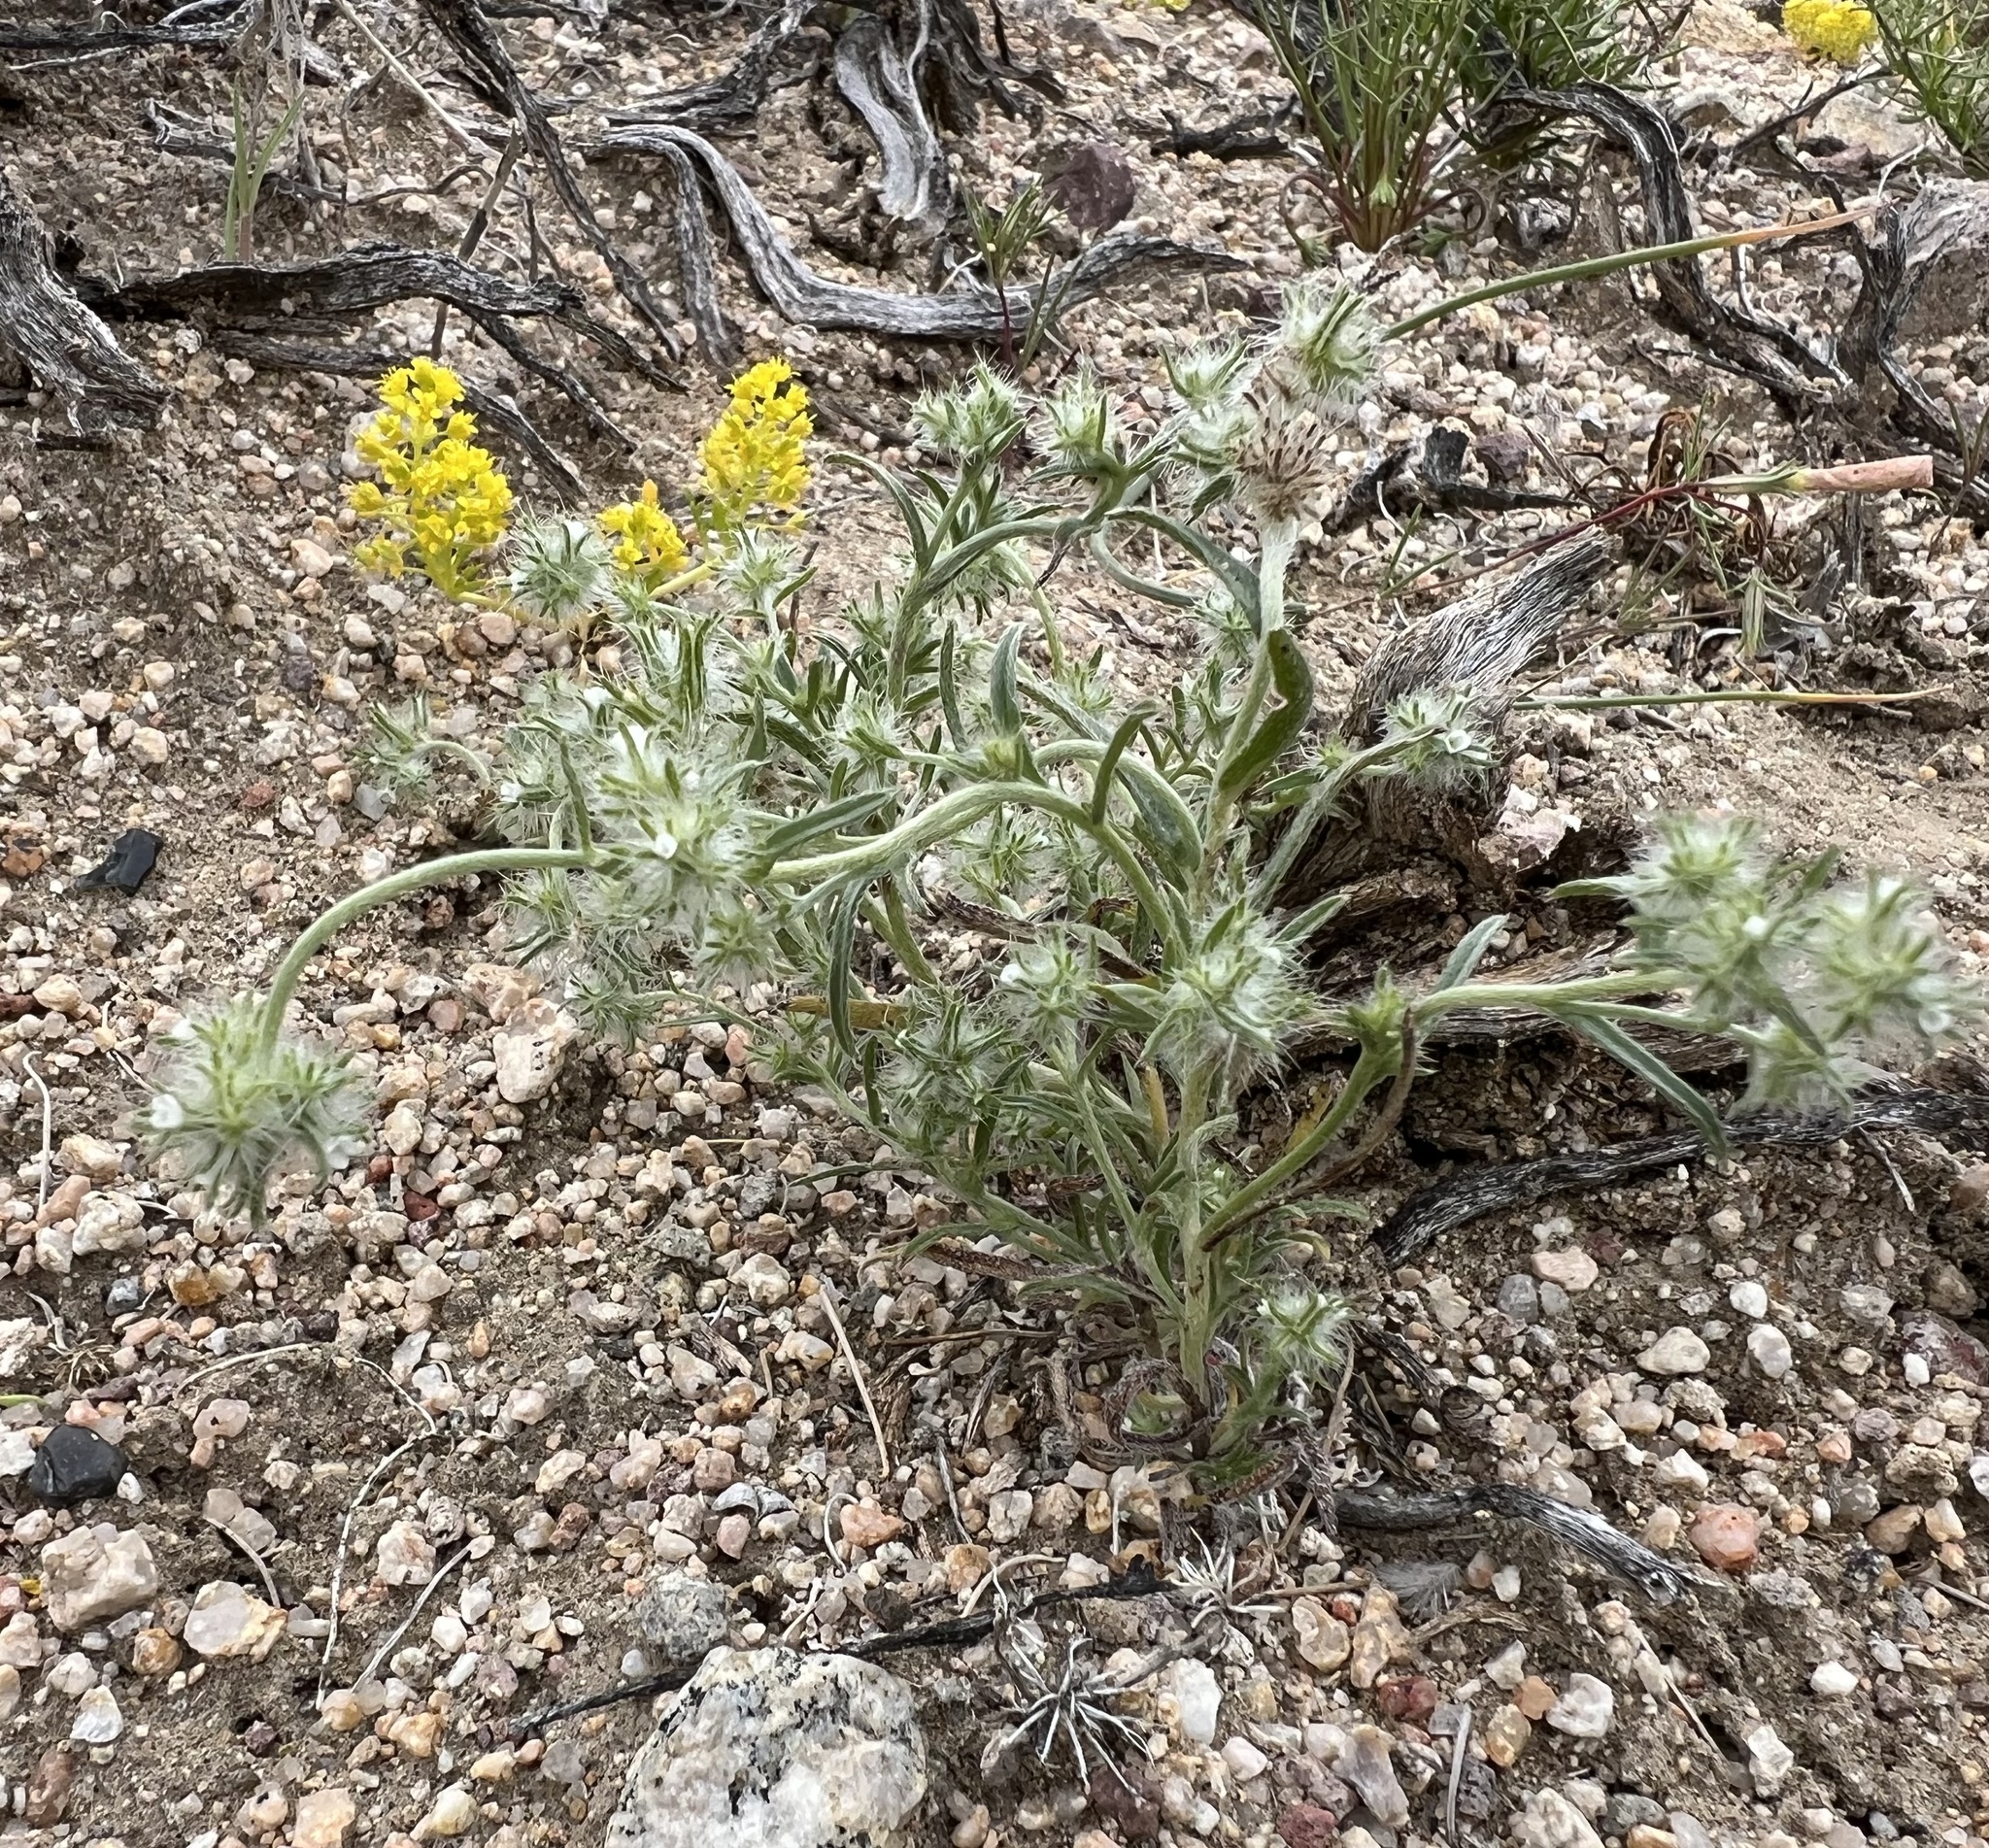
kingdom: Plantae
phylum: Tracheophyta
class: Magnoliopsida
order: Boraginales
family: Boraginaceae
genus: Cryptantha
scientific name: Cryptantha nevadensis
